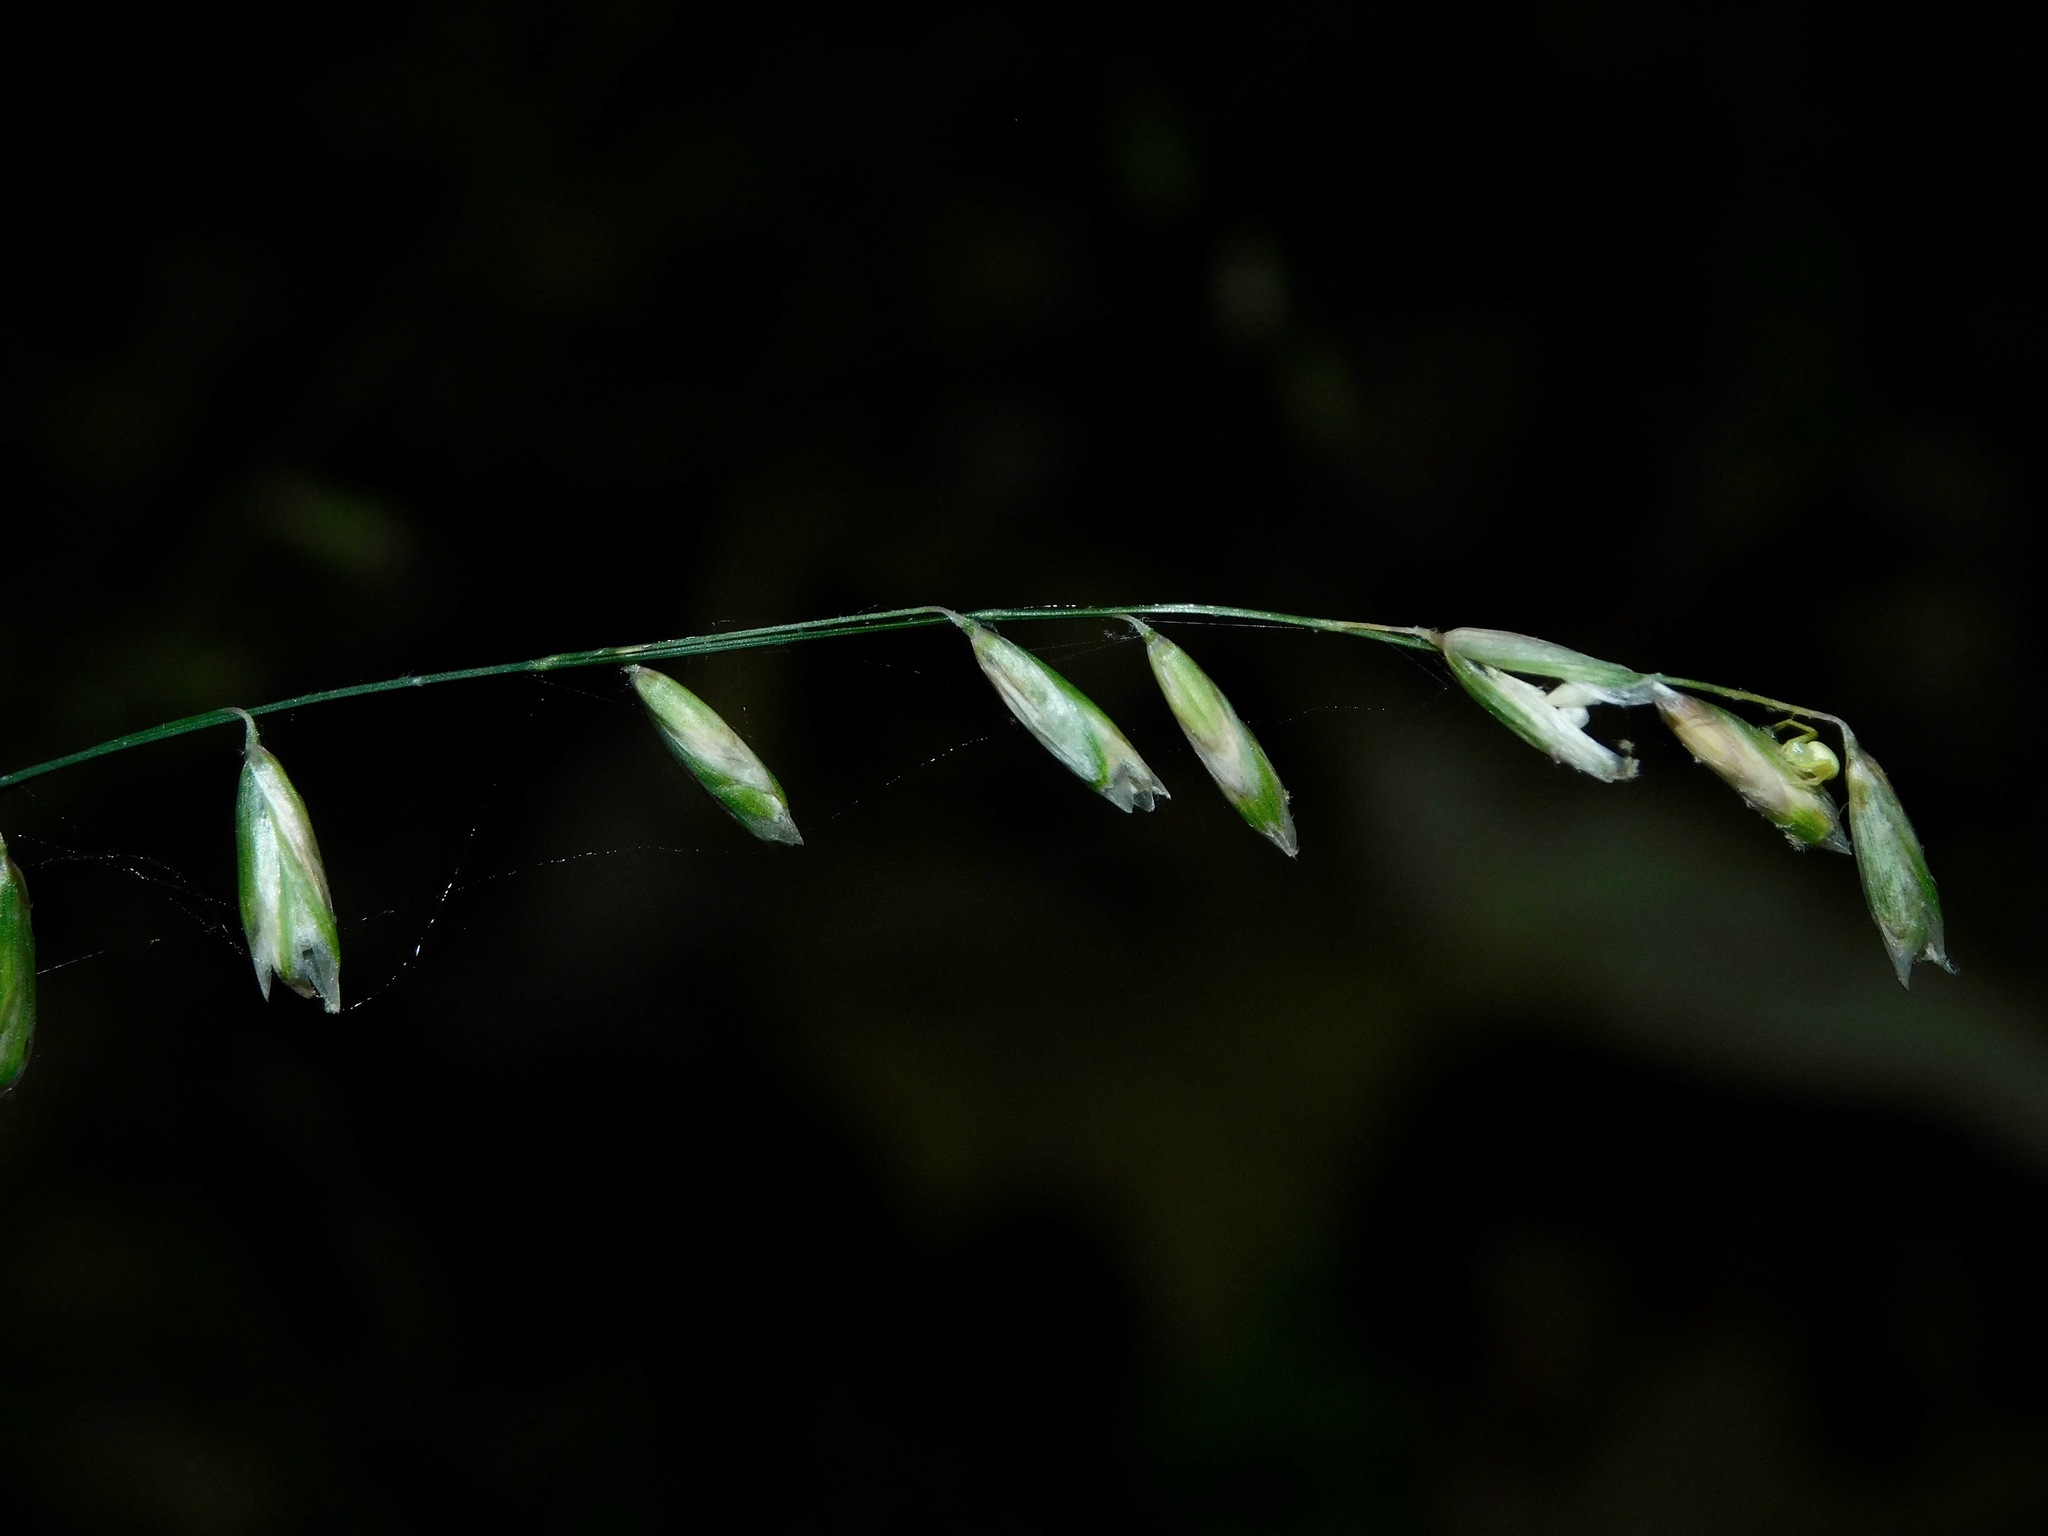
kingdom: Plantae
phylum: Tracheophyta
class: Liliopsida
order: Poales
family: Poaceae
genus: Melica
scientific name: Melica mutica
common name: Two-flower melic
